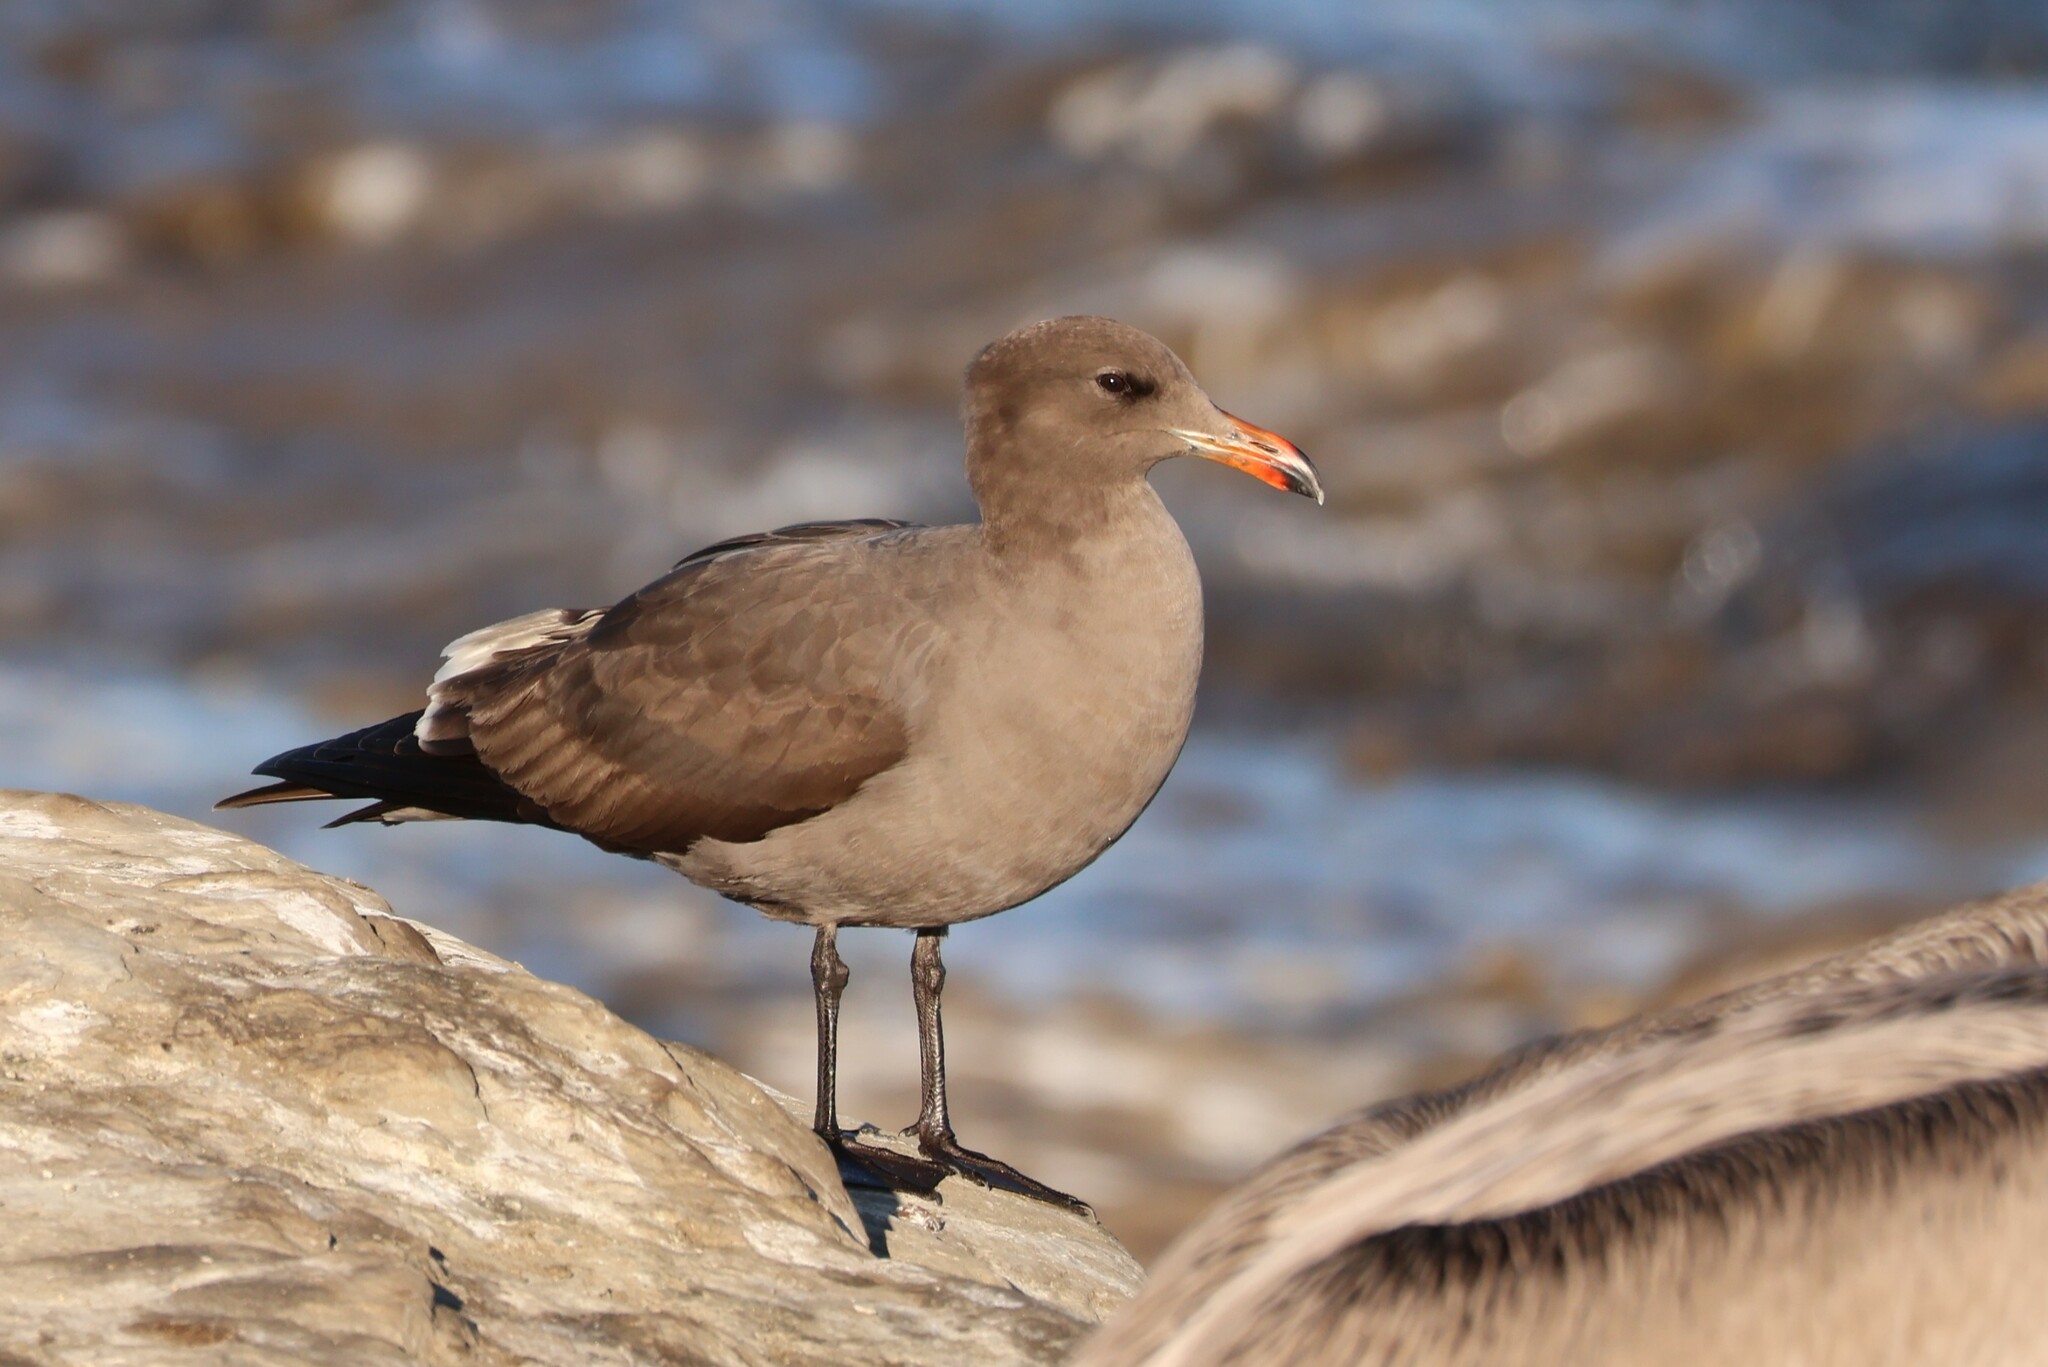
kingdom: Animalia
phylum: Chordata
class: Aves
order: Charadriiformes
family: Laridae
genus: Larus
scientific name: Larus heermanni
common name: Heermann's gull
